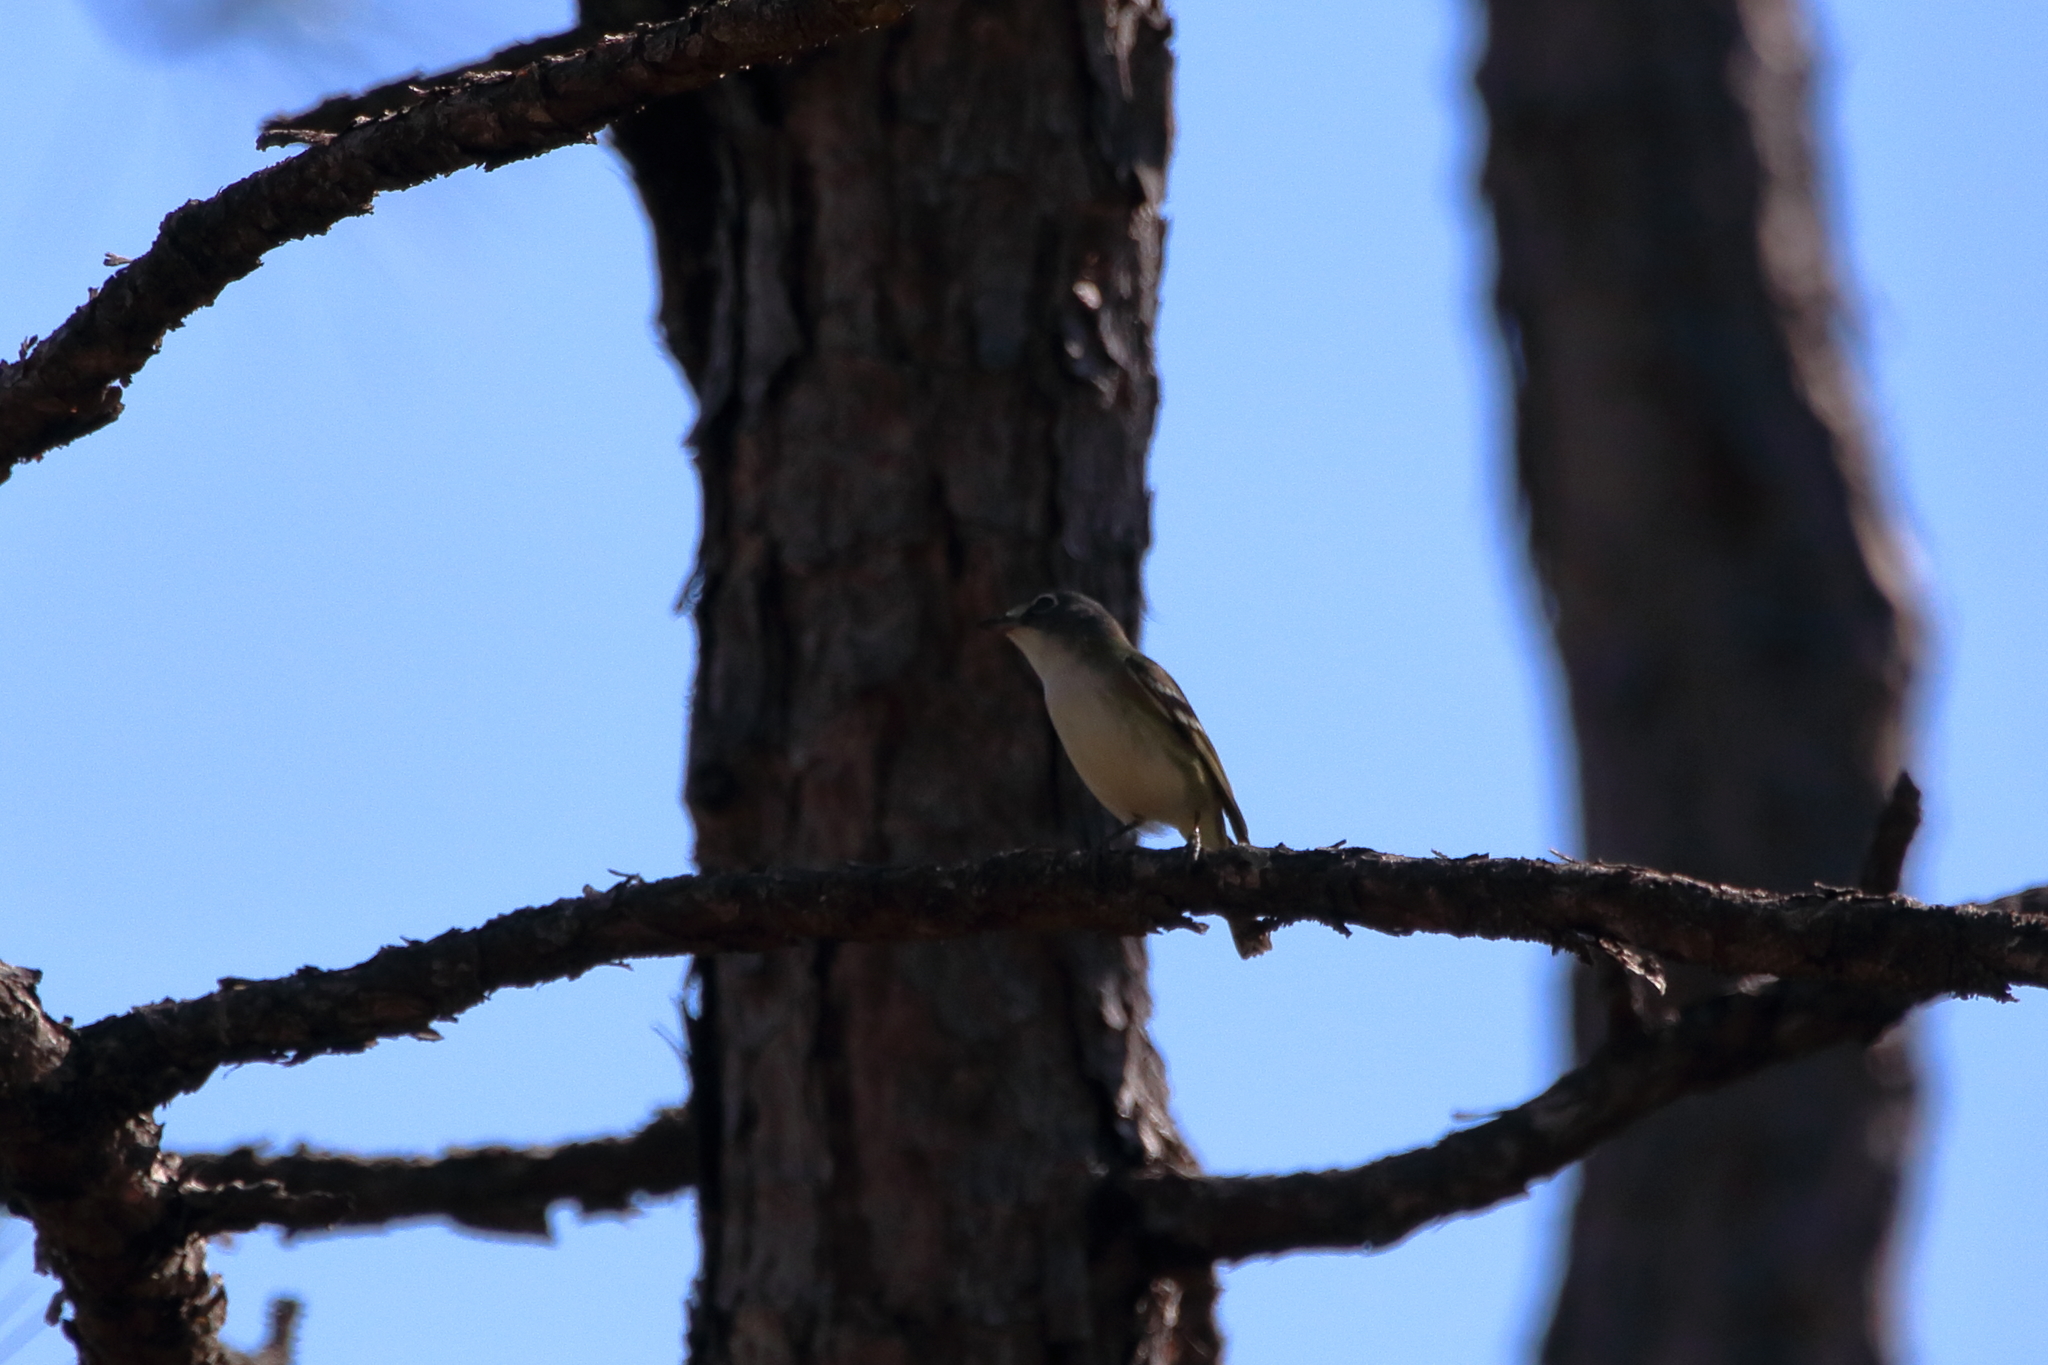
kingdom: Animalia
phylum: Chordata
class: Aves
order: Passeriformes
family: Vireonidae
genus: Vireo
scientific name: Vireo solitarius
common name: Blue-headed vireo
